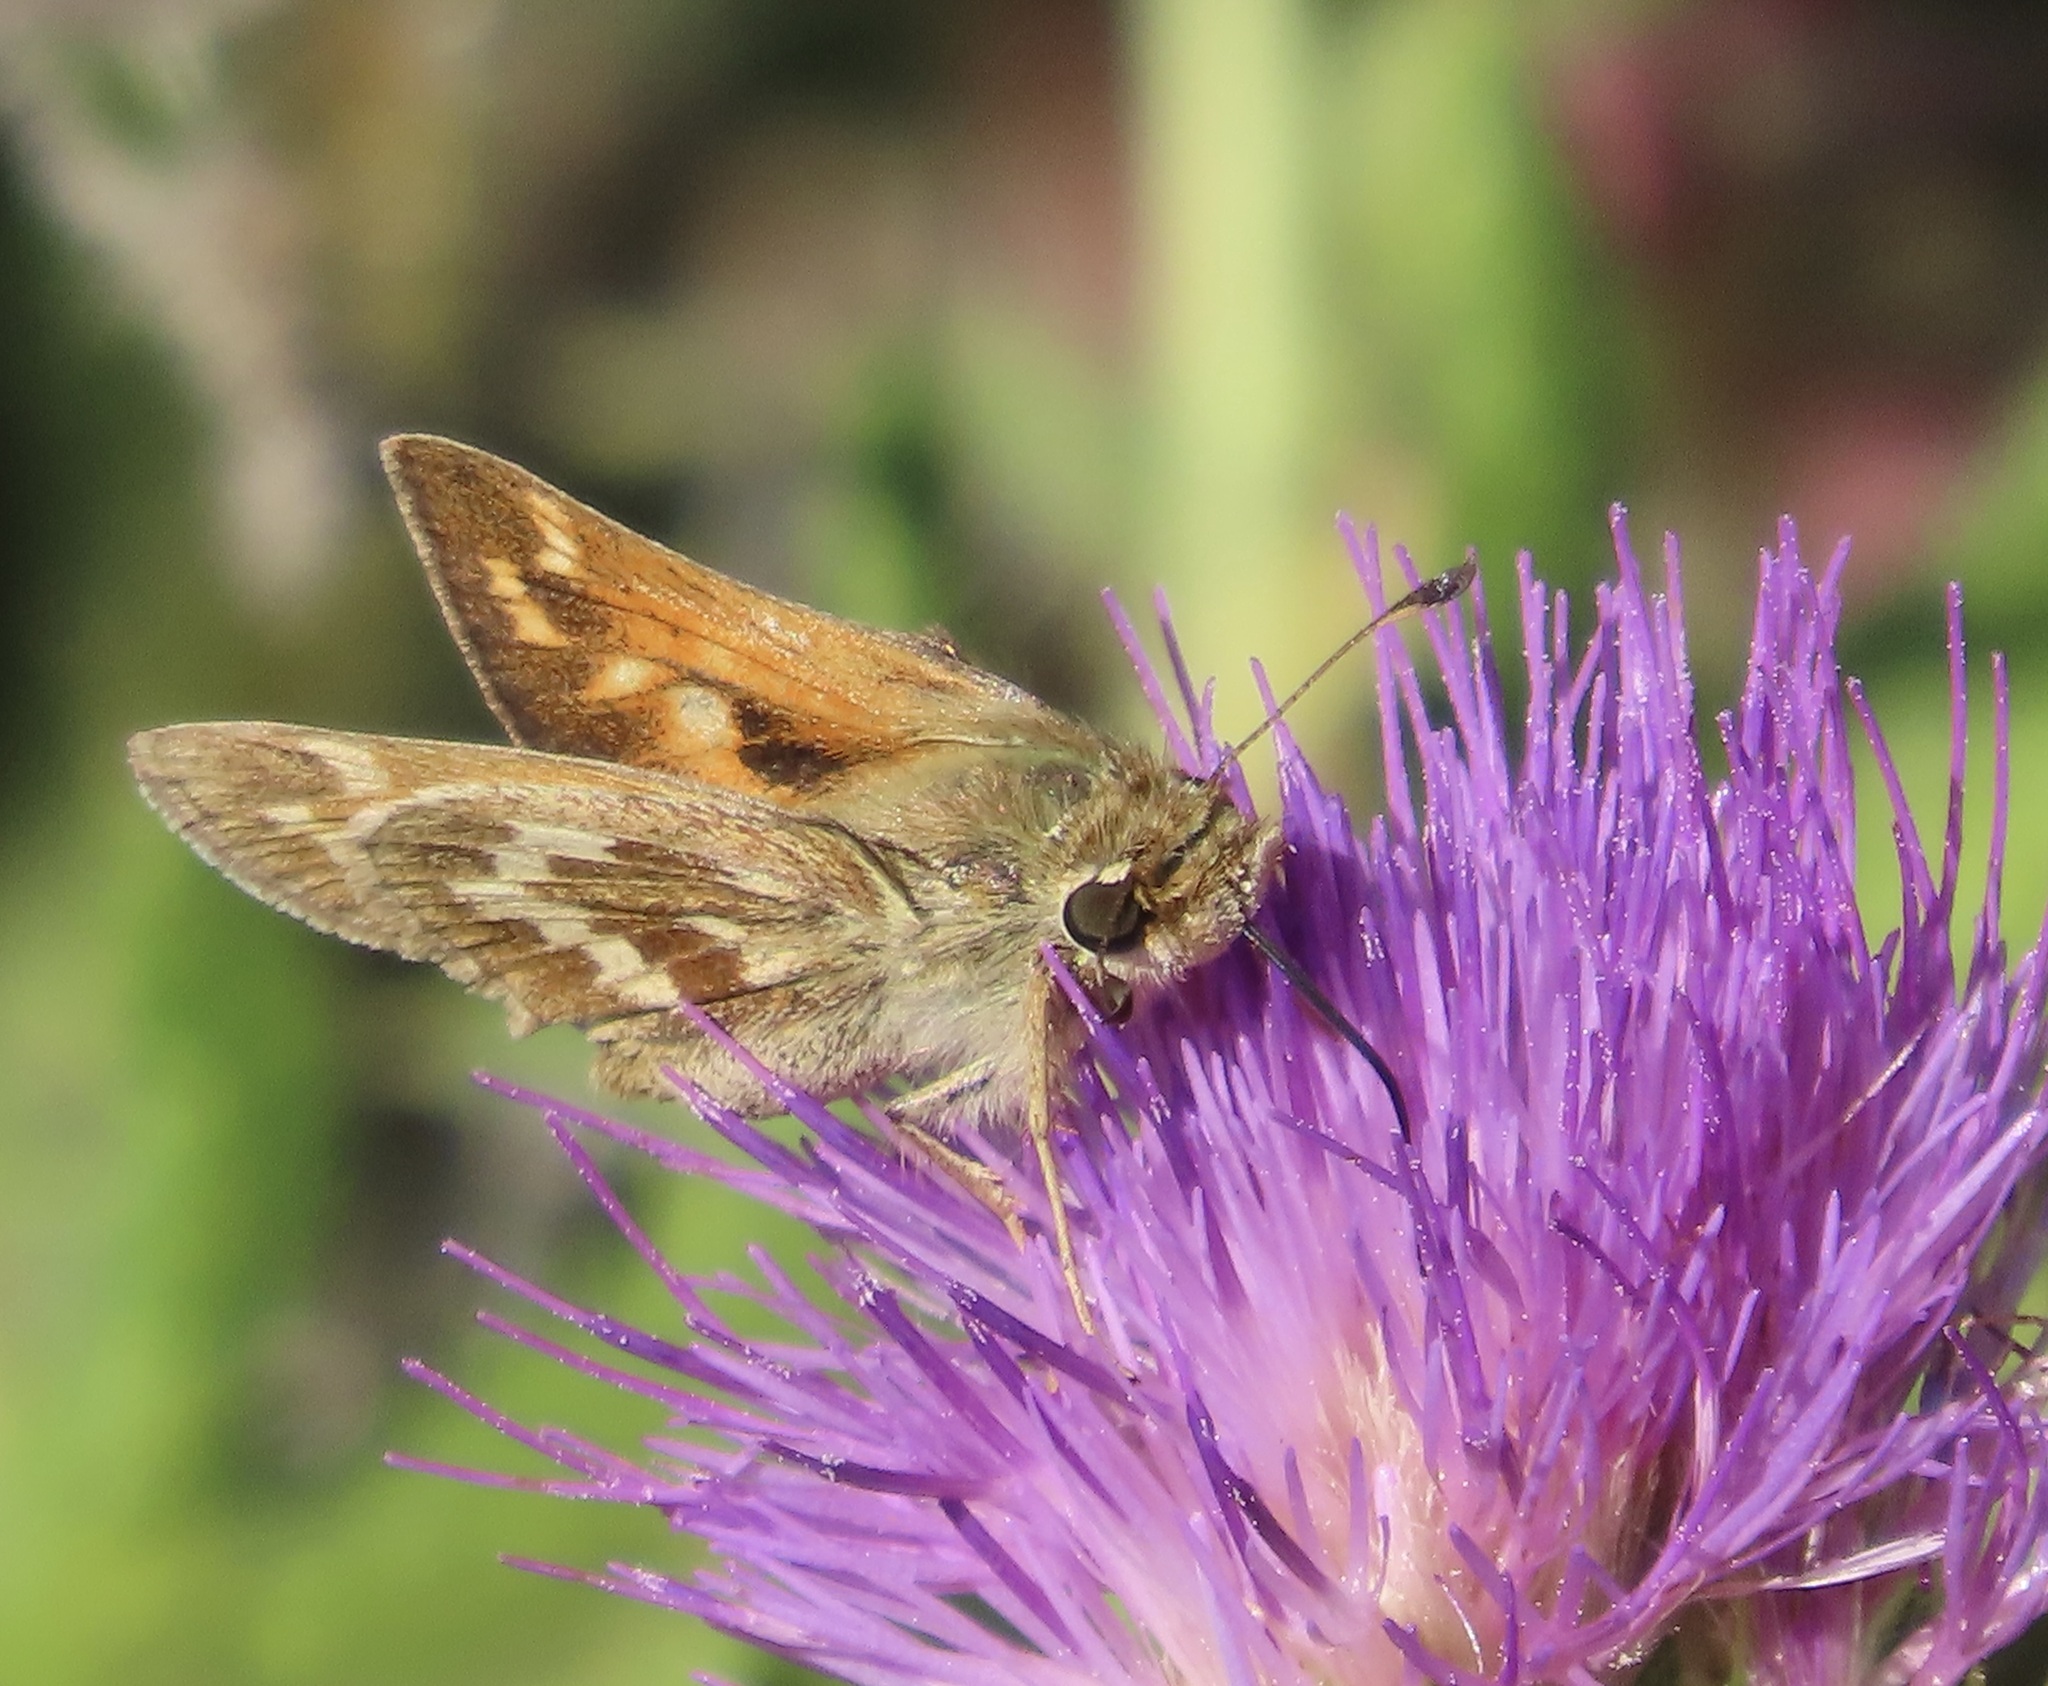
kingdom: Animalia
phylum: Arthropoda
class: Insecta
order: Lepidoptera
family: Hesperiidae
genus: Atalopedes
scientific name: Atalopedes campestris
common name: Sachem
